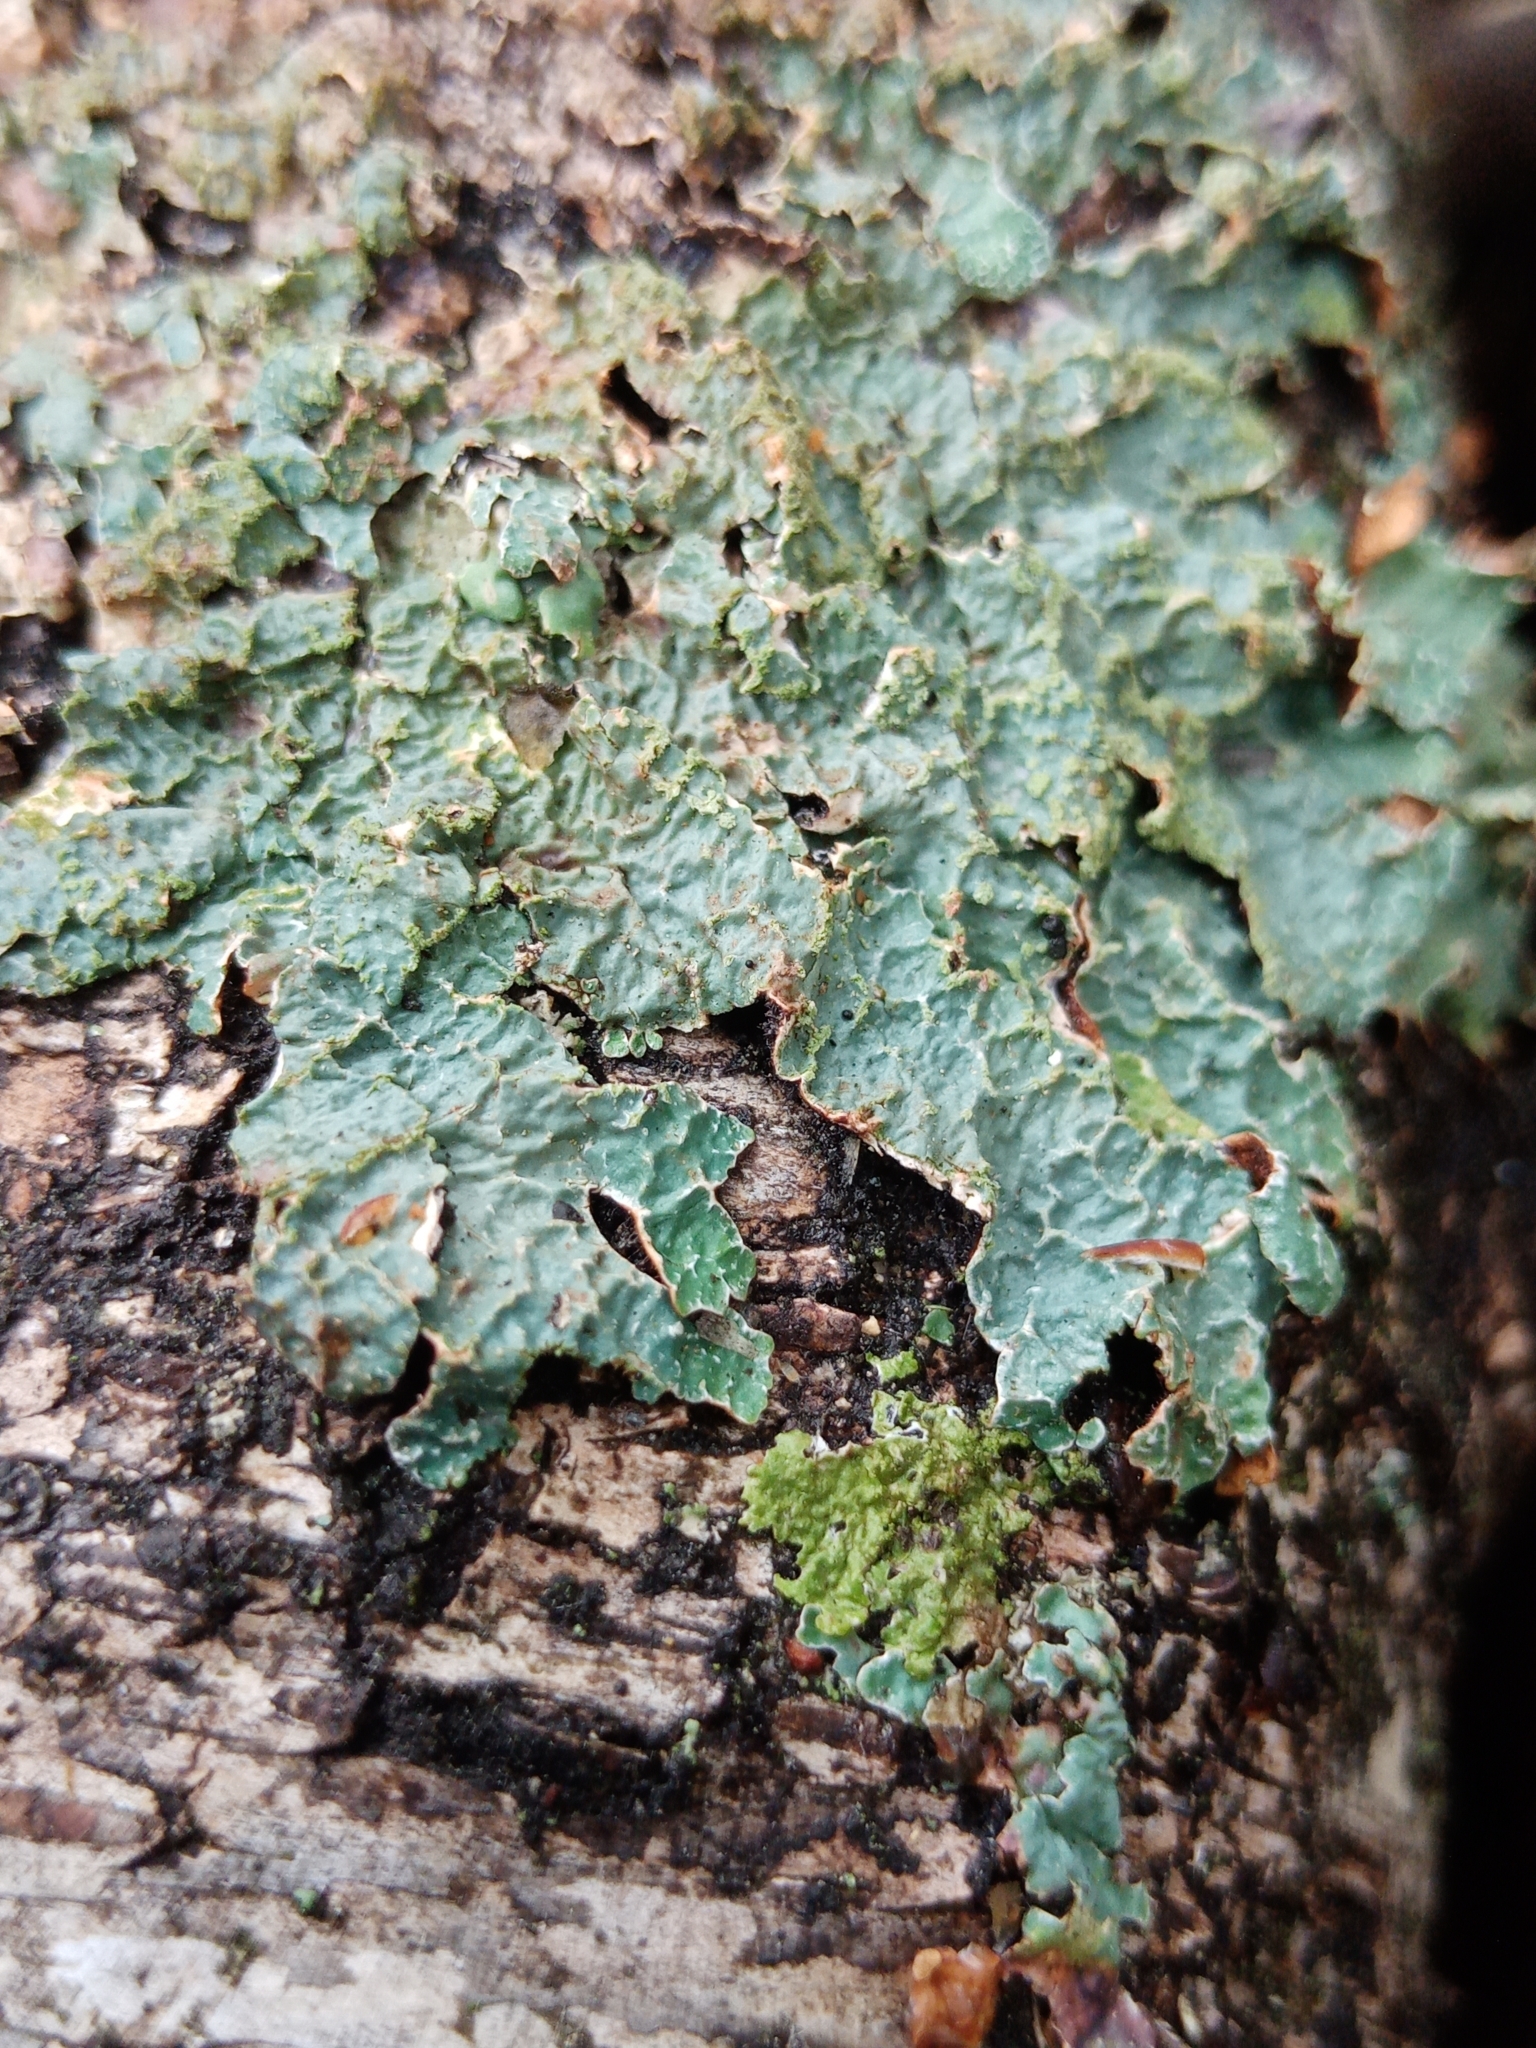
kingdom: Fungi
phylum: Ascomycota
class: Lecanoromycetes
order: Lecanorales
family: Parmeliaceae
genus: Parmelia
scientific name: Parmelia sulcata
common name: Netted shield lichen
